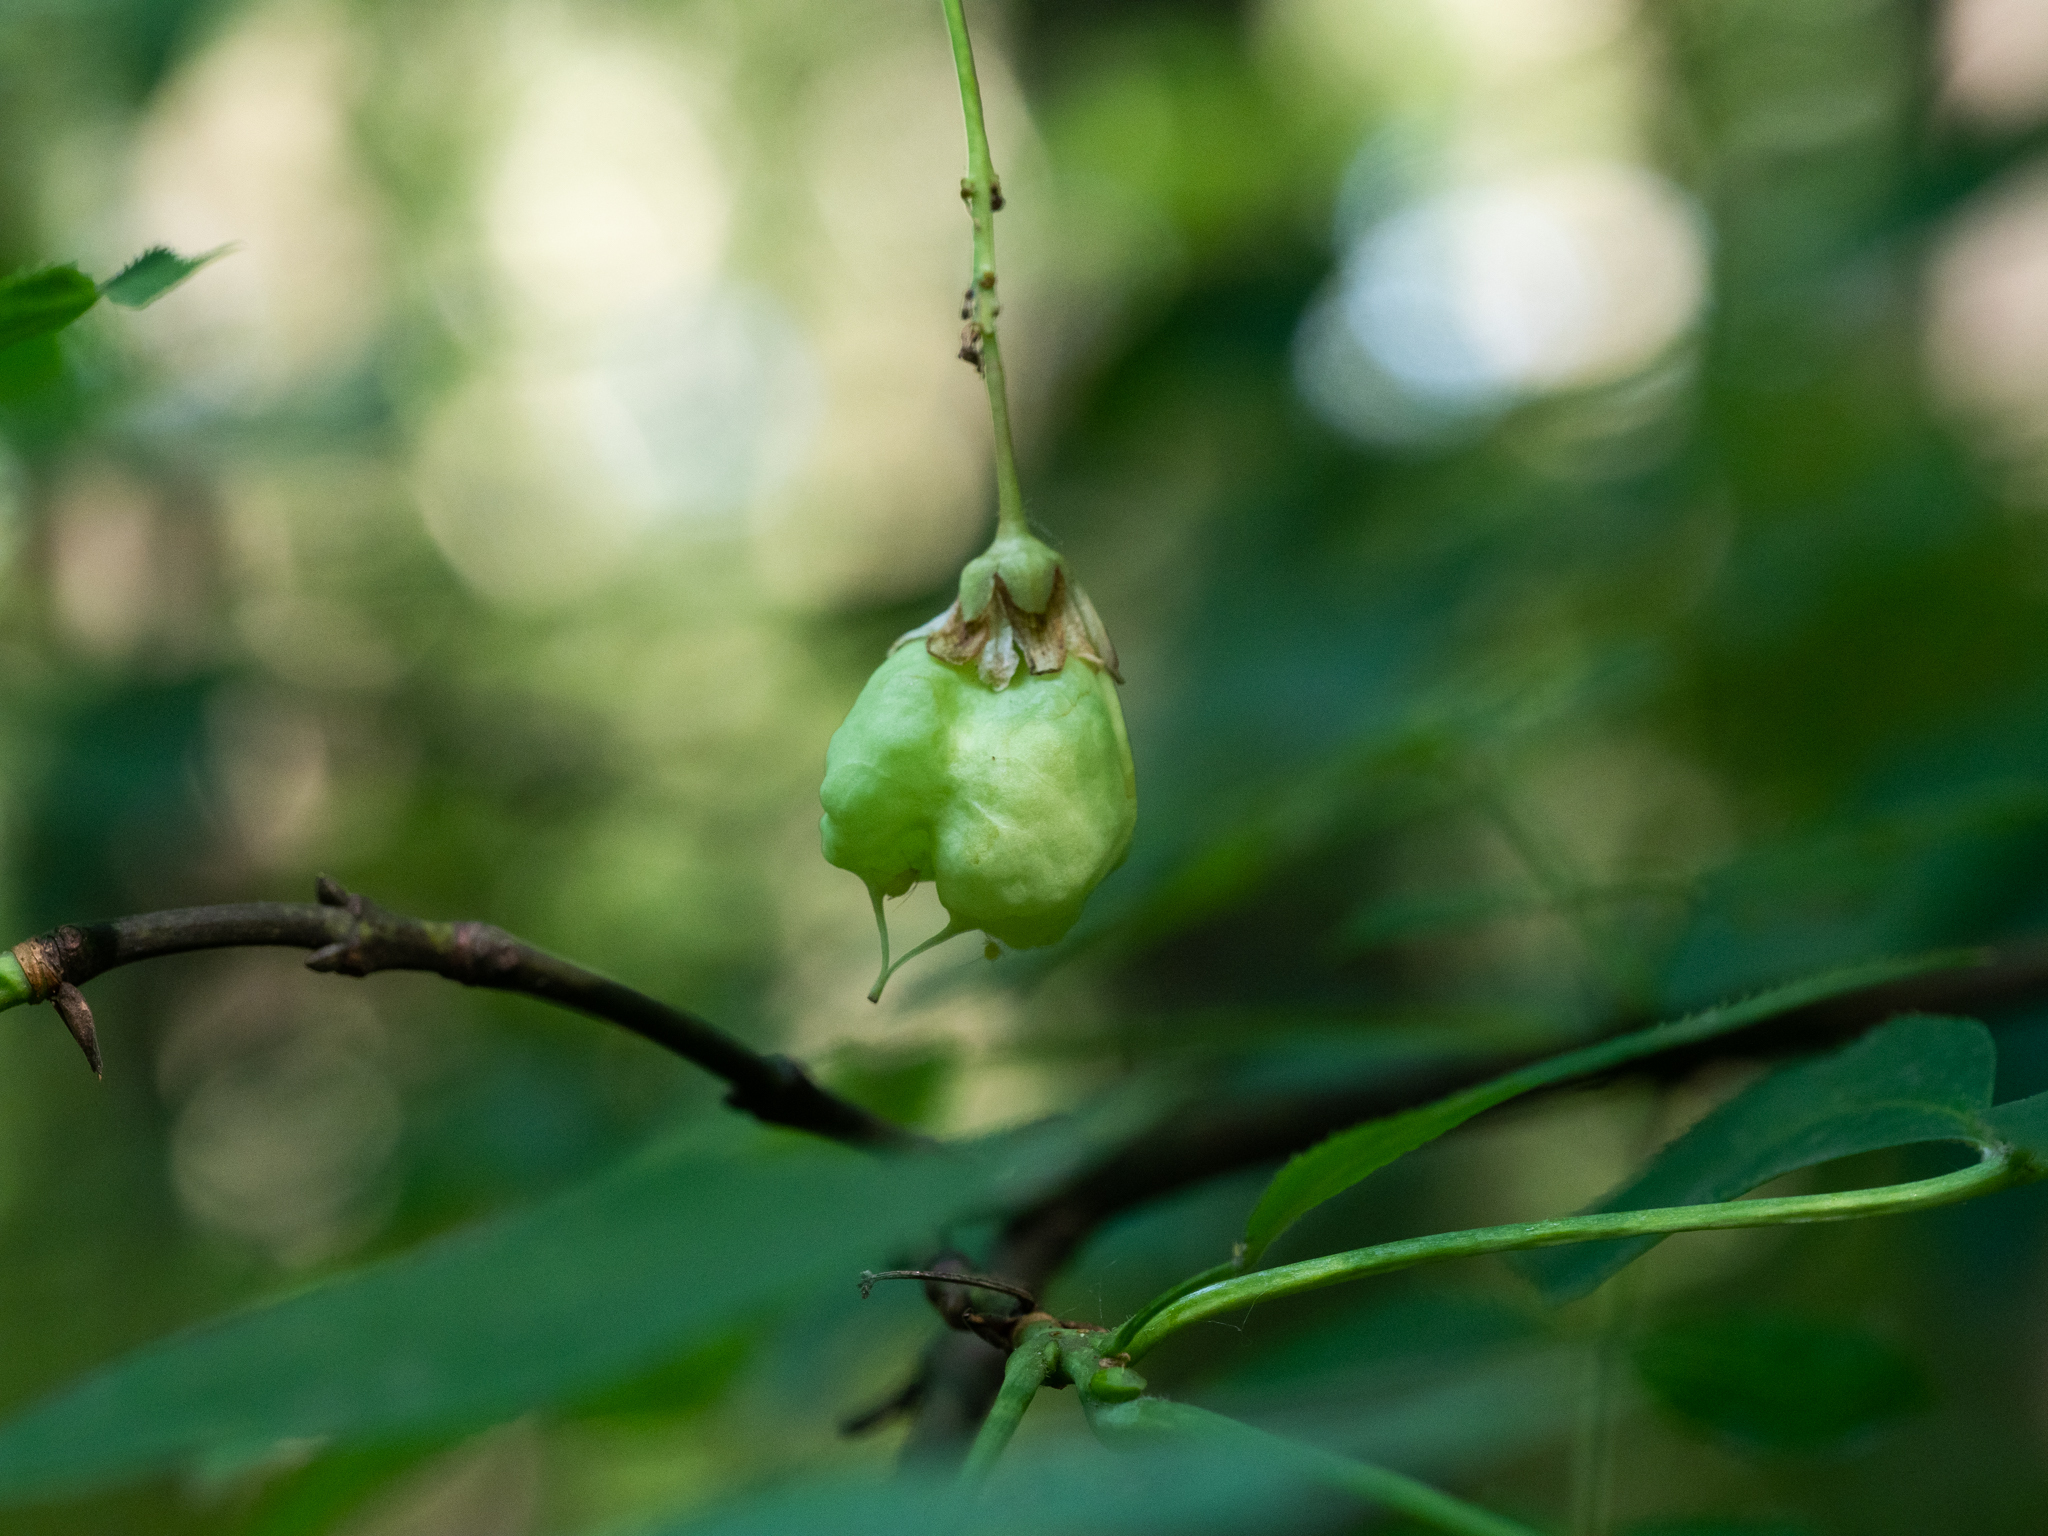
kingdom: Plantae
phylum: Tracheophyta
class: Magnoliopsida
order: Crossosomatales
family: Staphyleaceae
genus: Staphylea
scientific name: Staphylea pinnata
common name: Bladdernut
